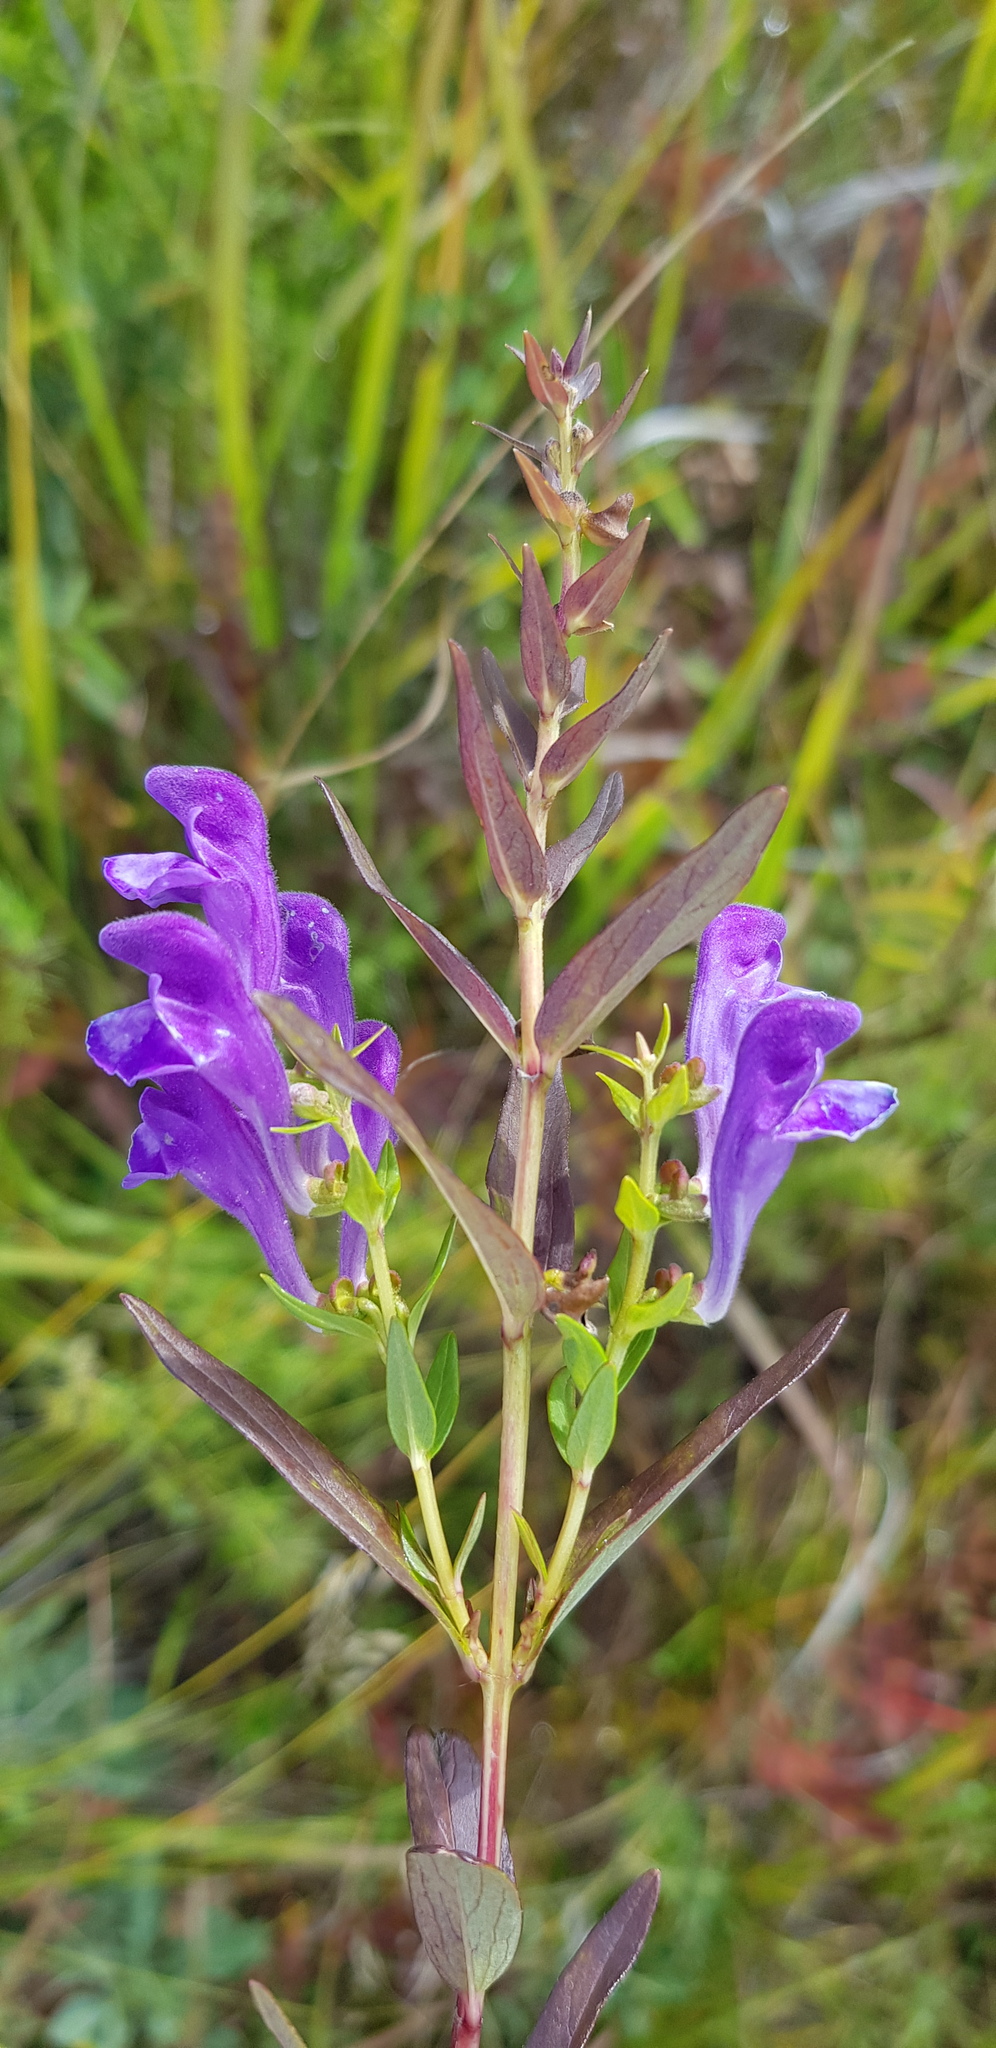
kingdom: Plantae
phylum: Tracheophyta
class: Magnoliopsida
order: Lamiales
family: Lamiaceae
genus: Scutellaria
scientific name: Scutellaria baicalensis
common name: Baikal skullcap
